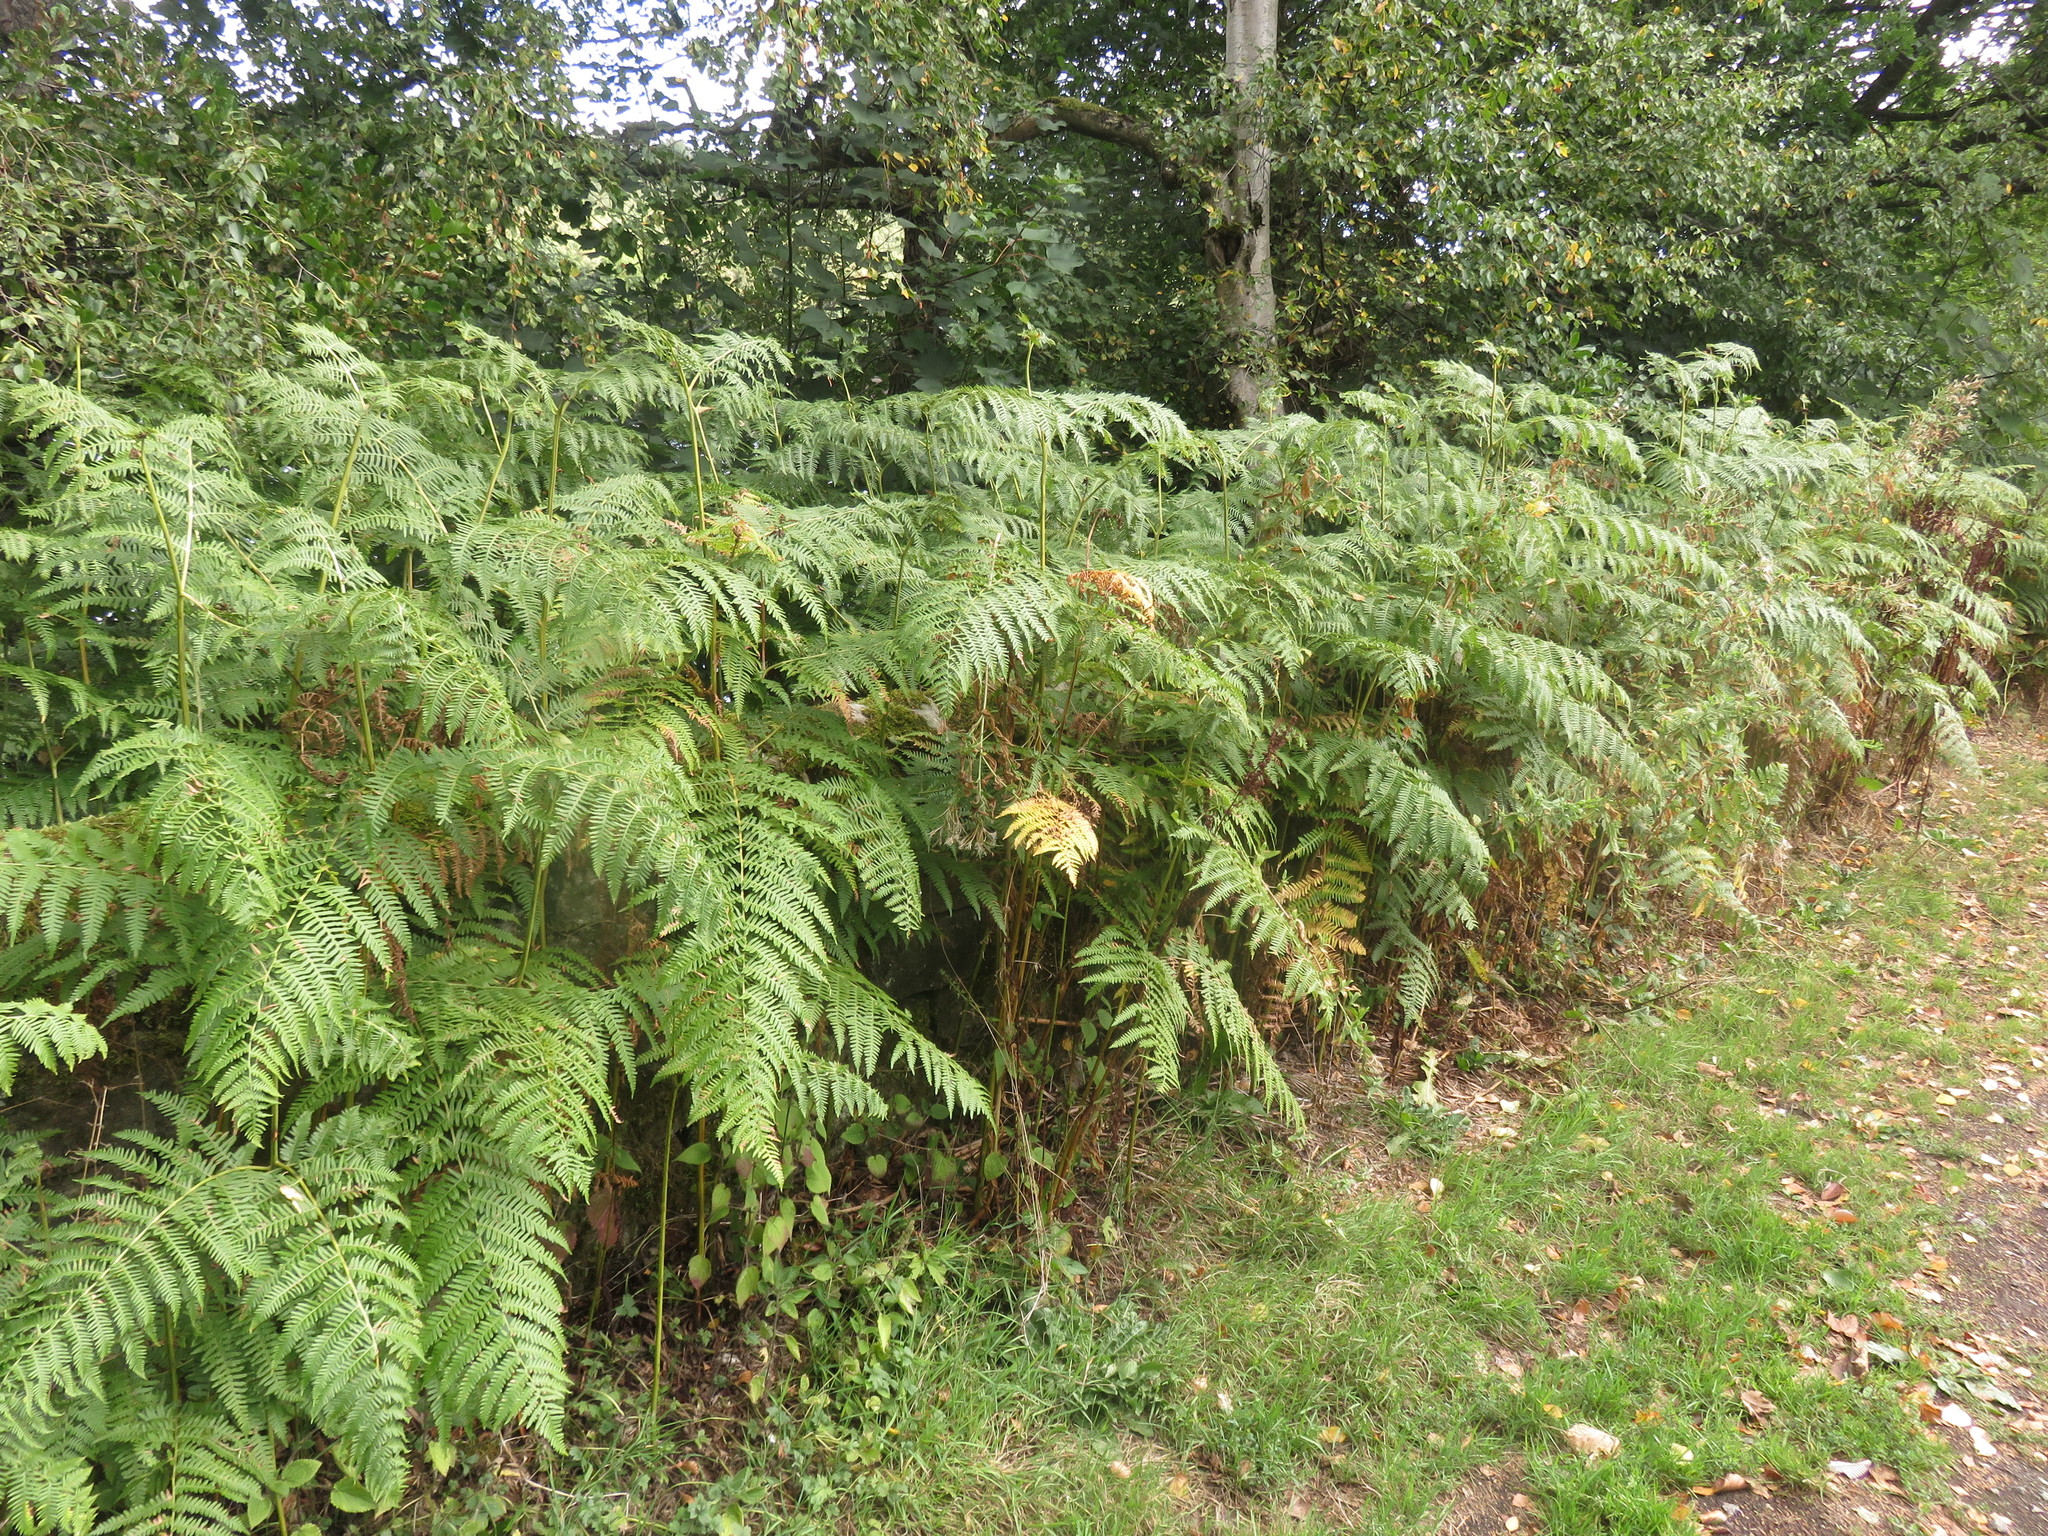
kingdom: Plantae
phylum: Tracheophyta
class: Polypodiopsida
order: Polypodiales
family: Dennstaedtiaceae
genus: Pteridium
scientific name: Pteridium aquilinum
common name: Bracken
